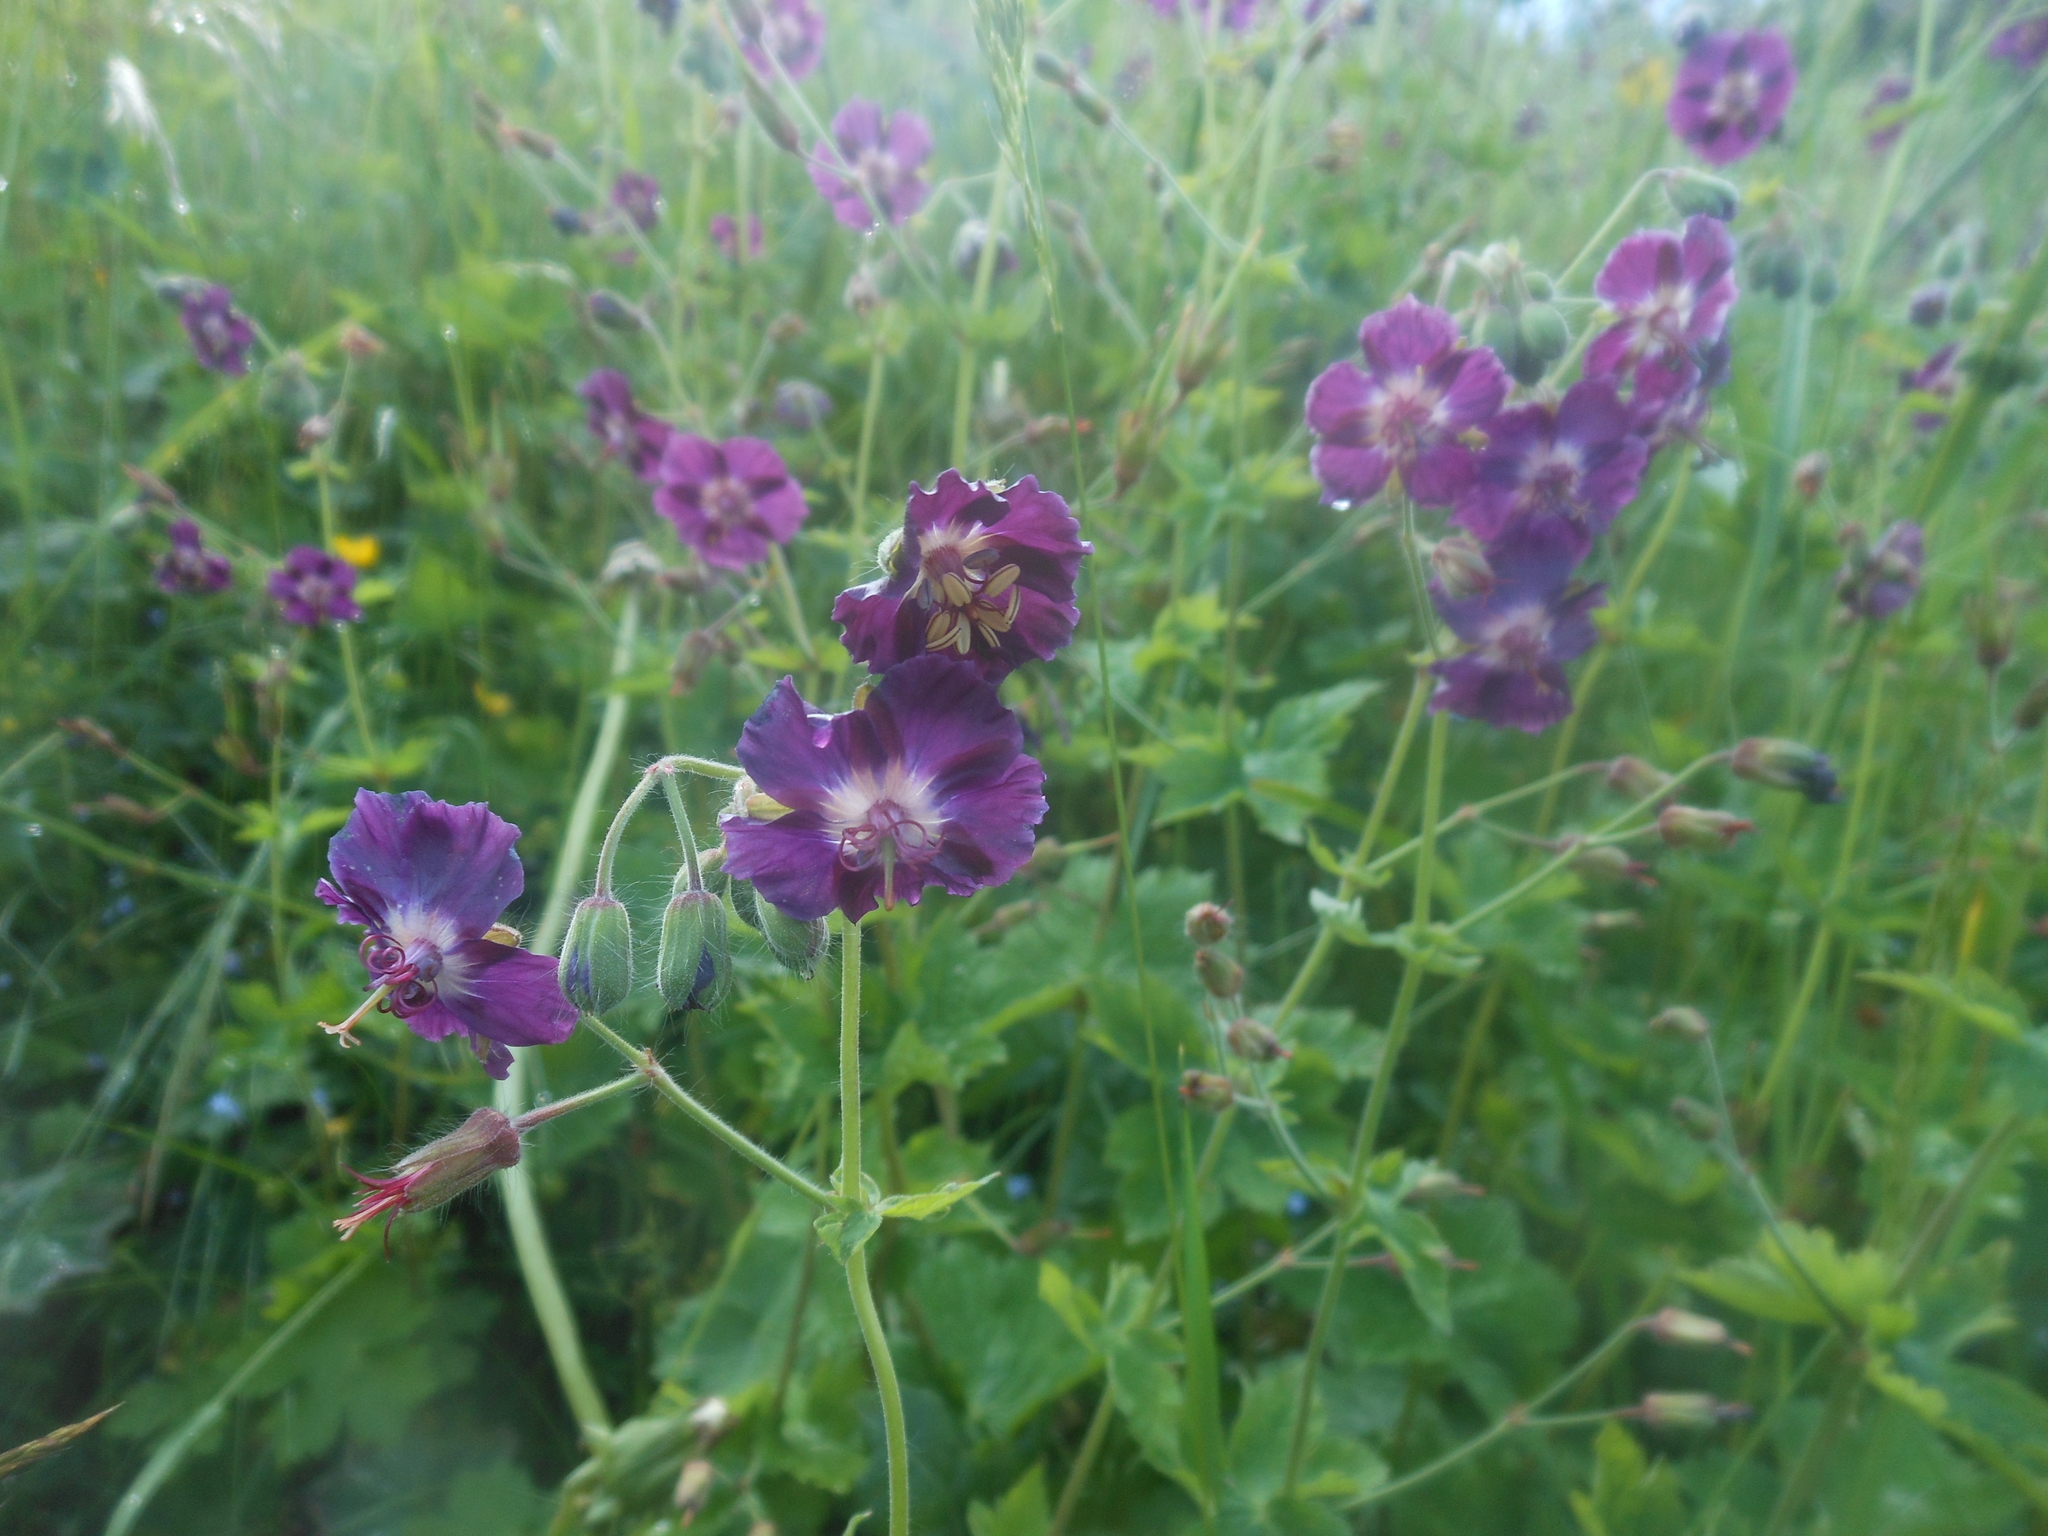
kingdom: Plantae
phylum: Tracheophyta
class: Magnoliopsida
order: Geraniales
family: Geraniaceae
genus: Geranium
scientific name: Geranium phaeum
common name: Dusky crane's-bill
